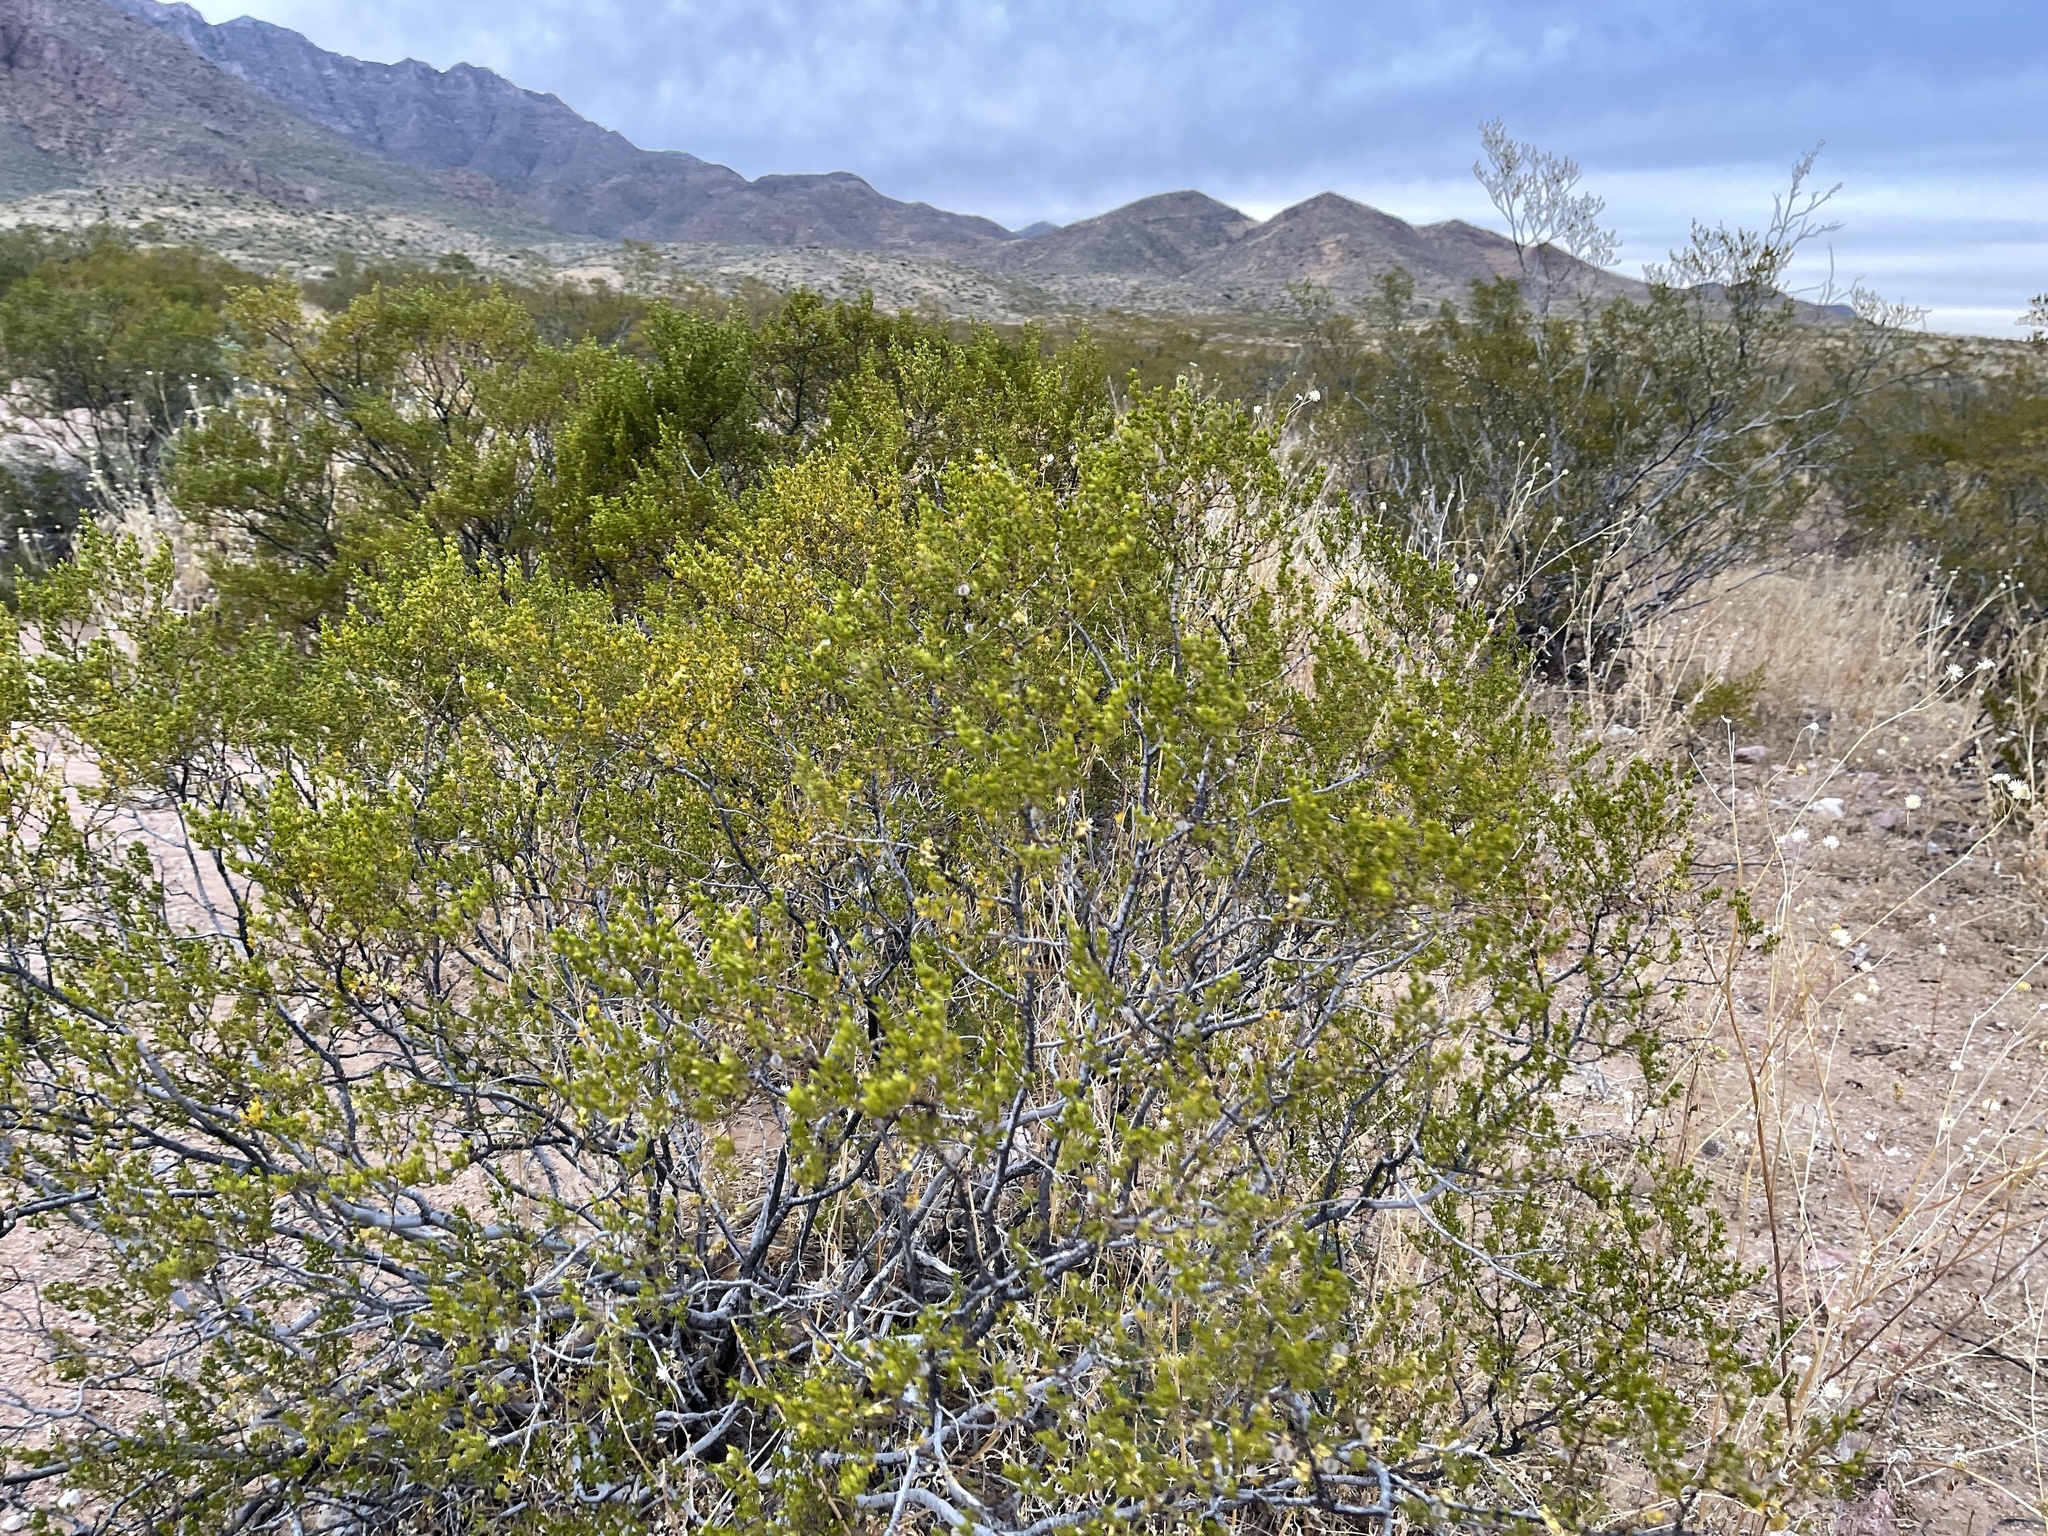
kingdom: Plantae
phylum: Tracheophyta
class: Magnoliopsida
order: Zygophyllales
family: Zygophyllaceae
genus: Larrea
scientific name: Larrea tridentata
